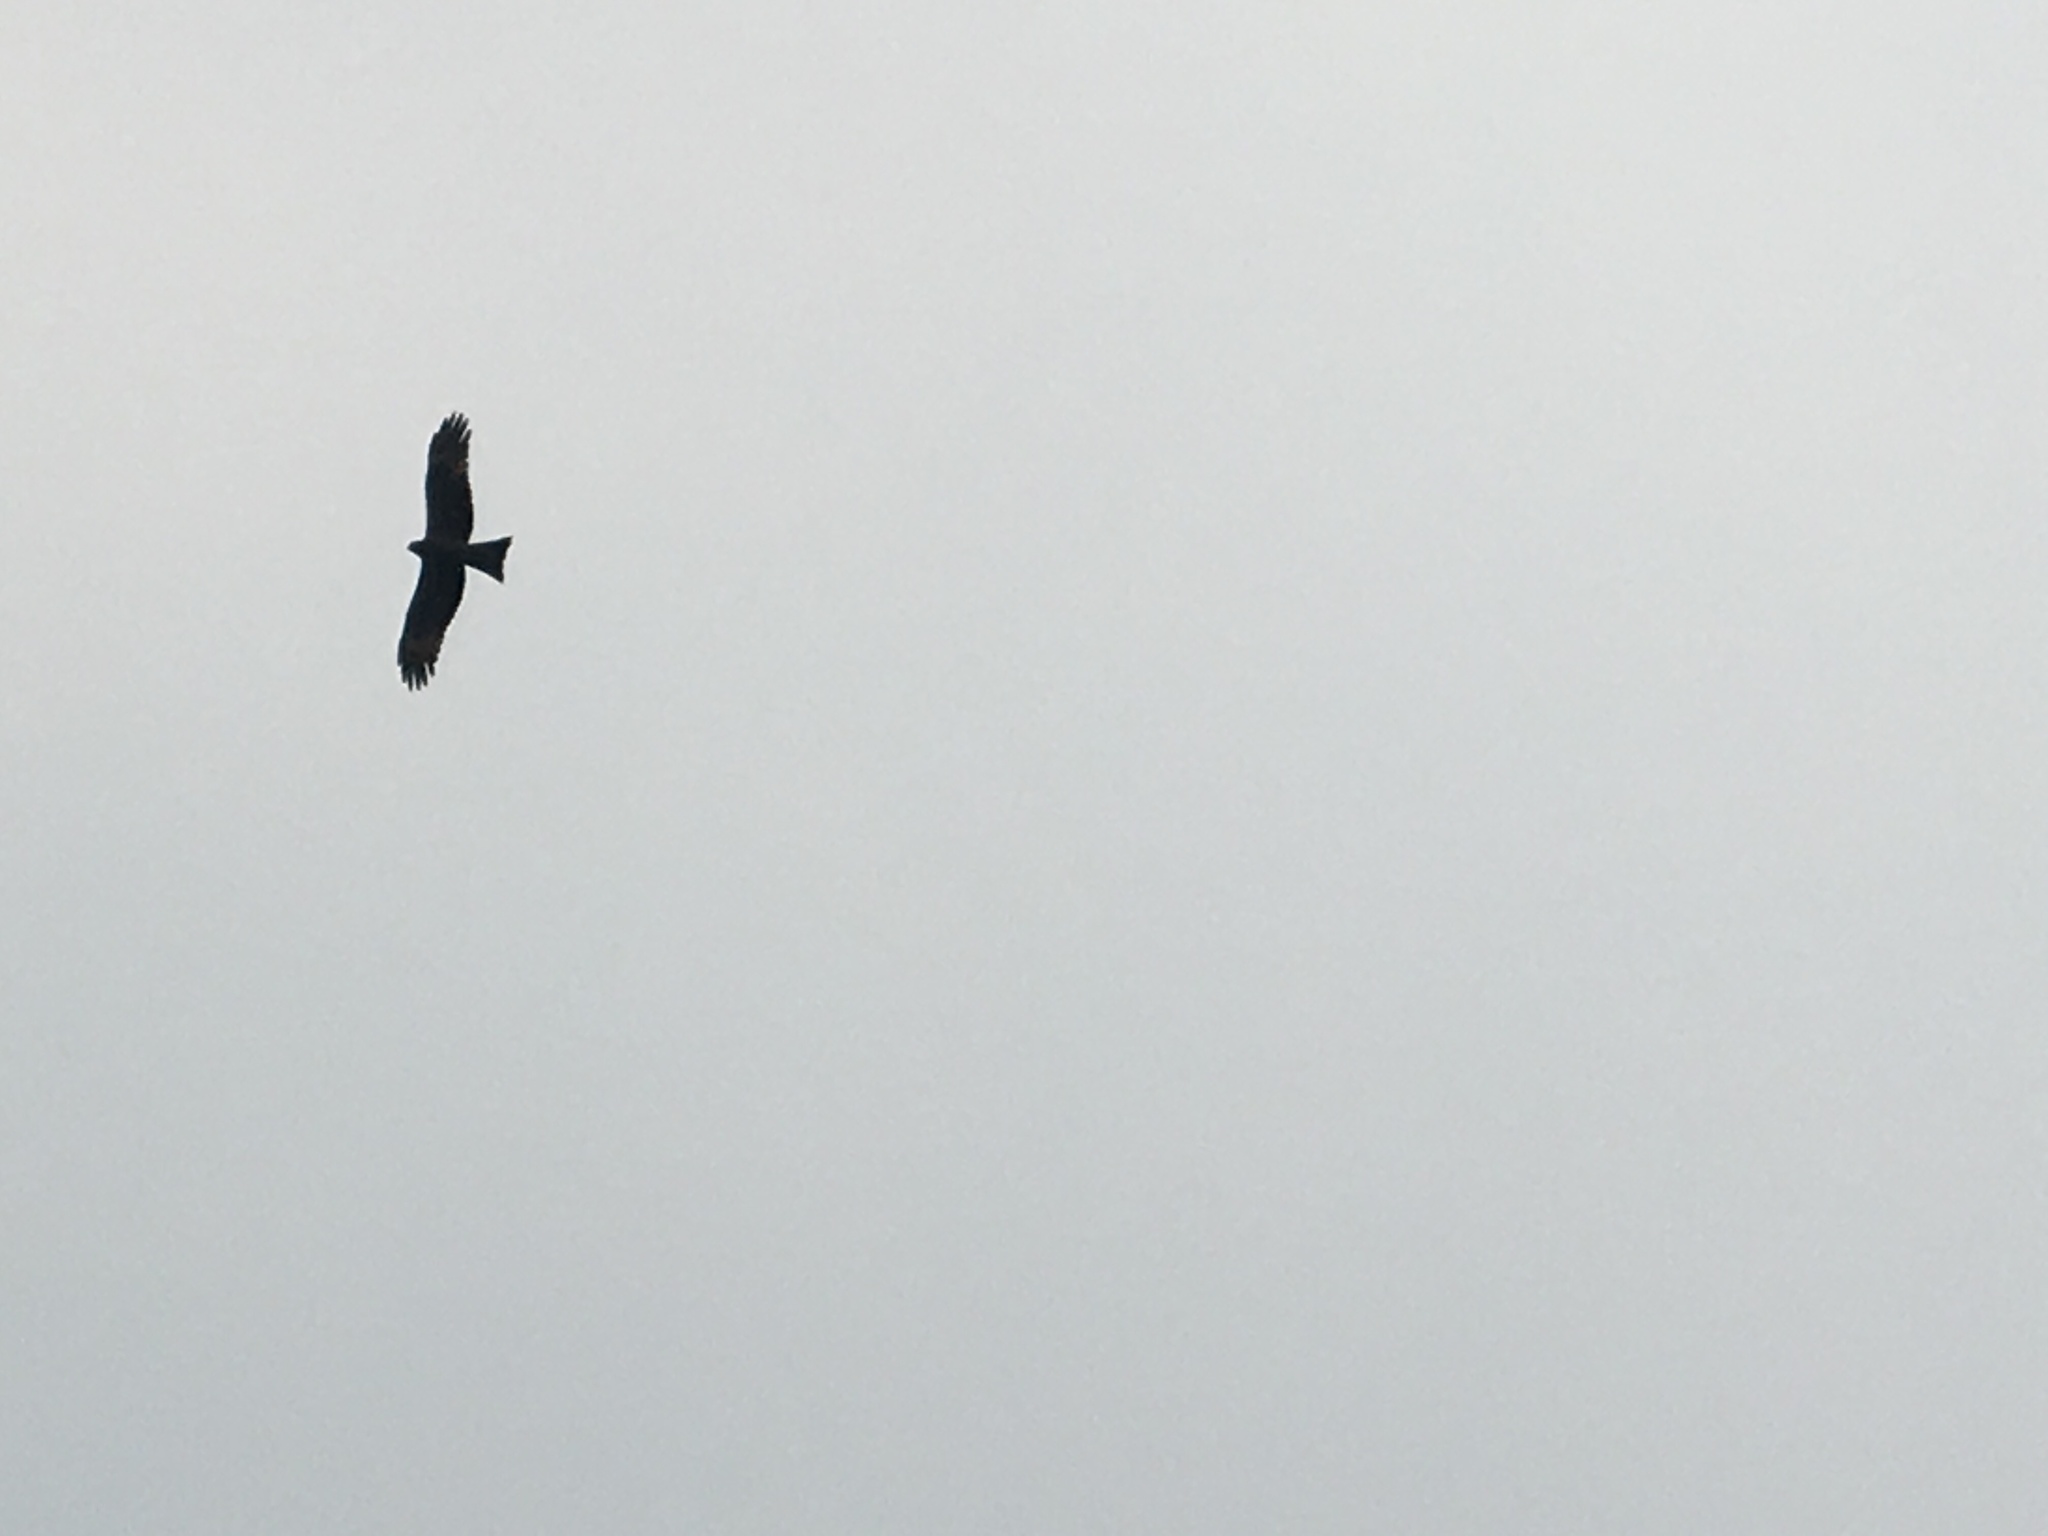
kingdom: Animalia
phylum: Chordata
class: Aves
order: Accipitriformes
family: Accipitridae
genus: Milvus
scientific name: Milvus migrans
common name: Black kite
